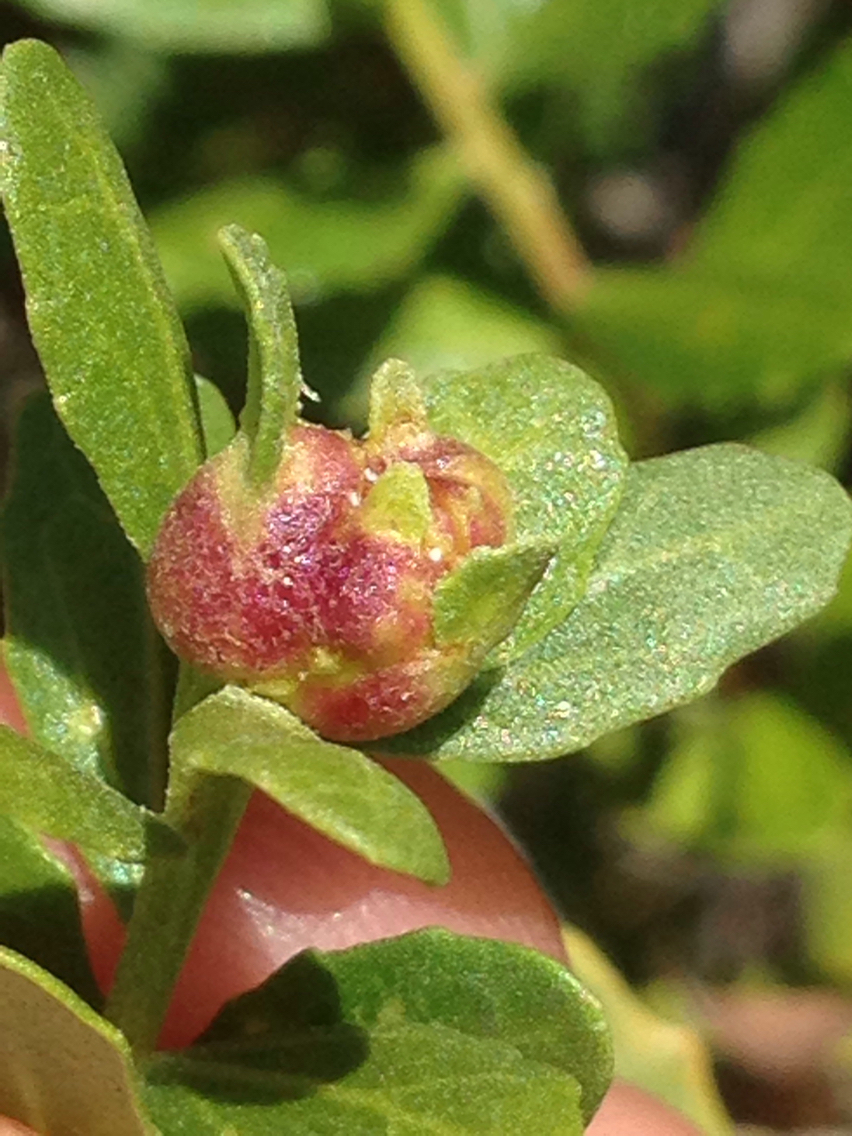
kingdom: Animalia
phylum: Arthropoda
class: Insecta
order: Diptera
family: Cecidomyiidae
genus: Rhopalomyia
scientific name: Rhopalomyia californica
